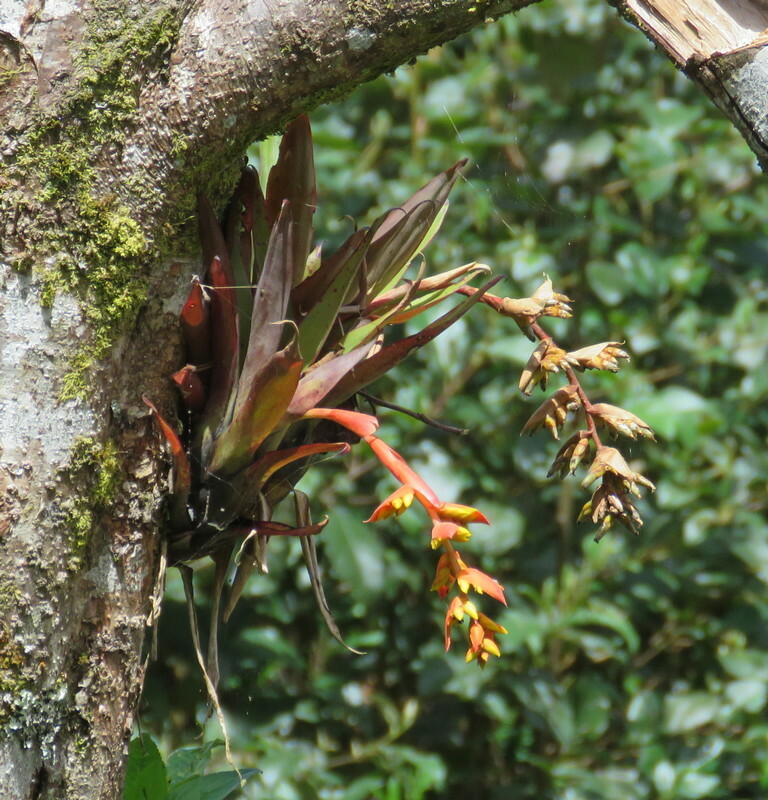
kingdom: Plantae
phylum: Tracheophyta
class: Liliopsida
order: Poales
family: Bromeliaceae
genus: Racinaea
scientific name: Racinaea tetrantha
